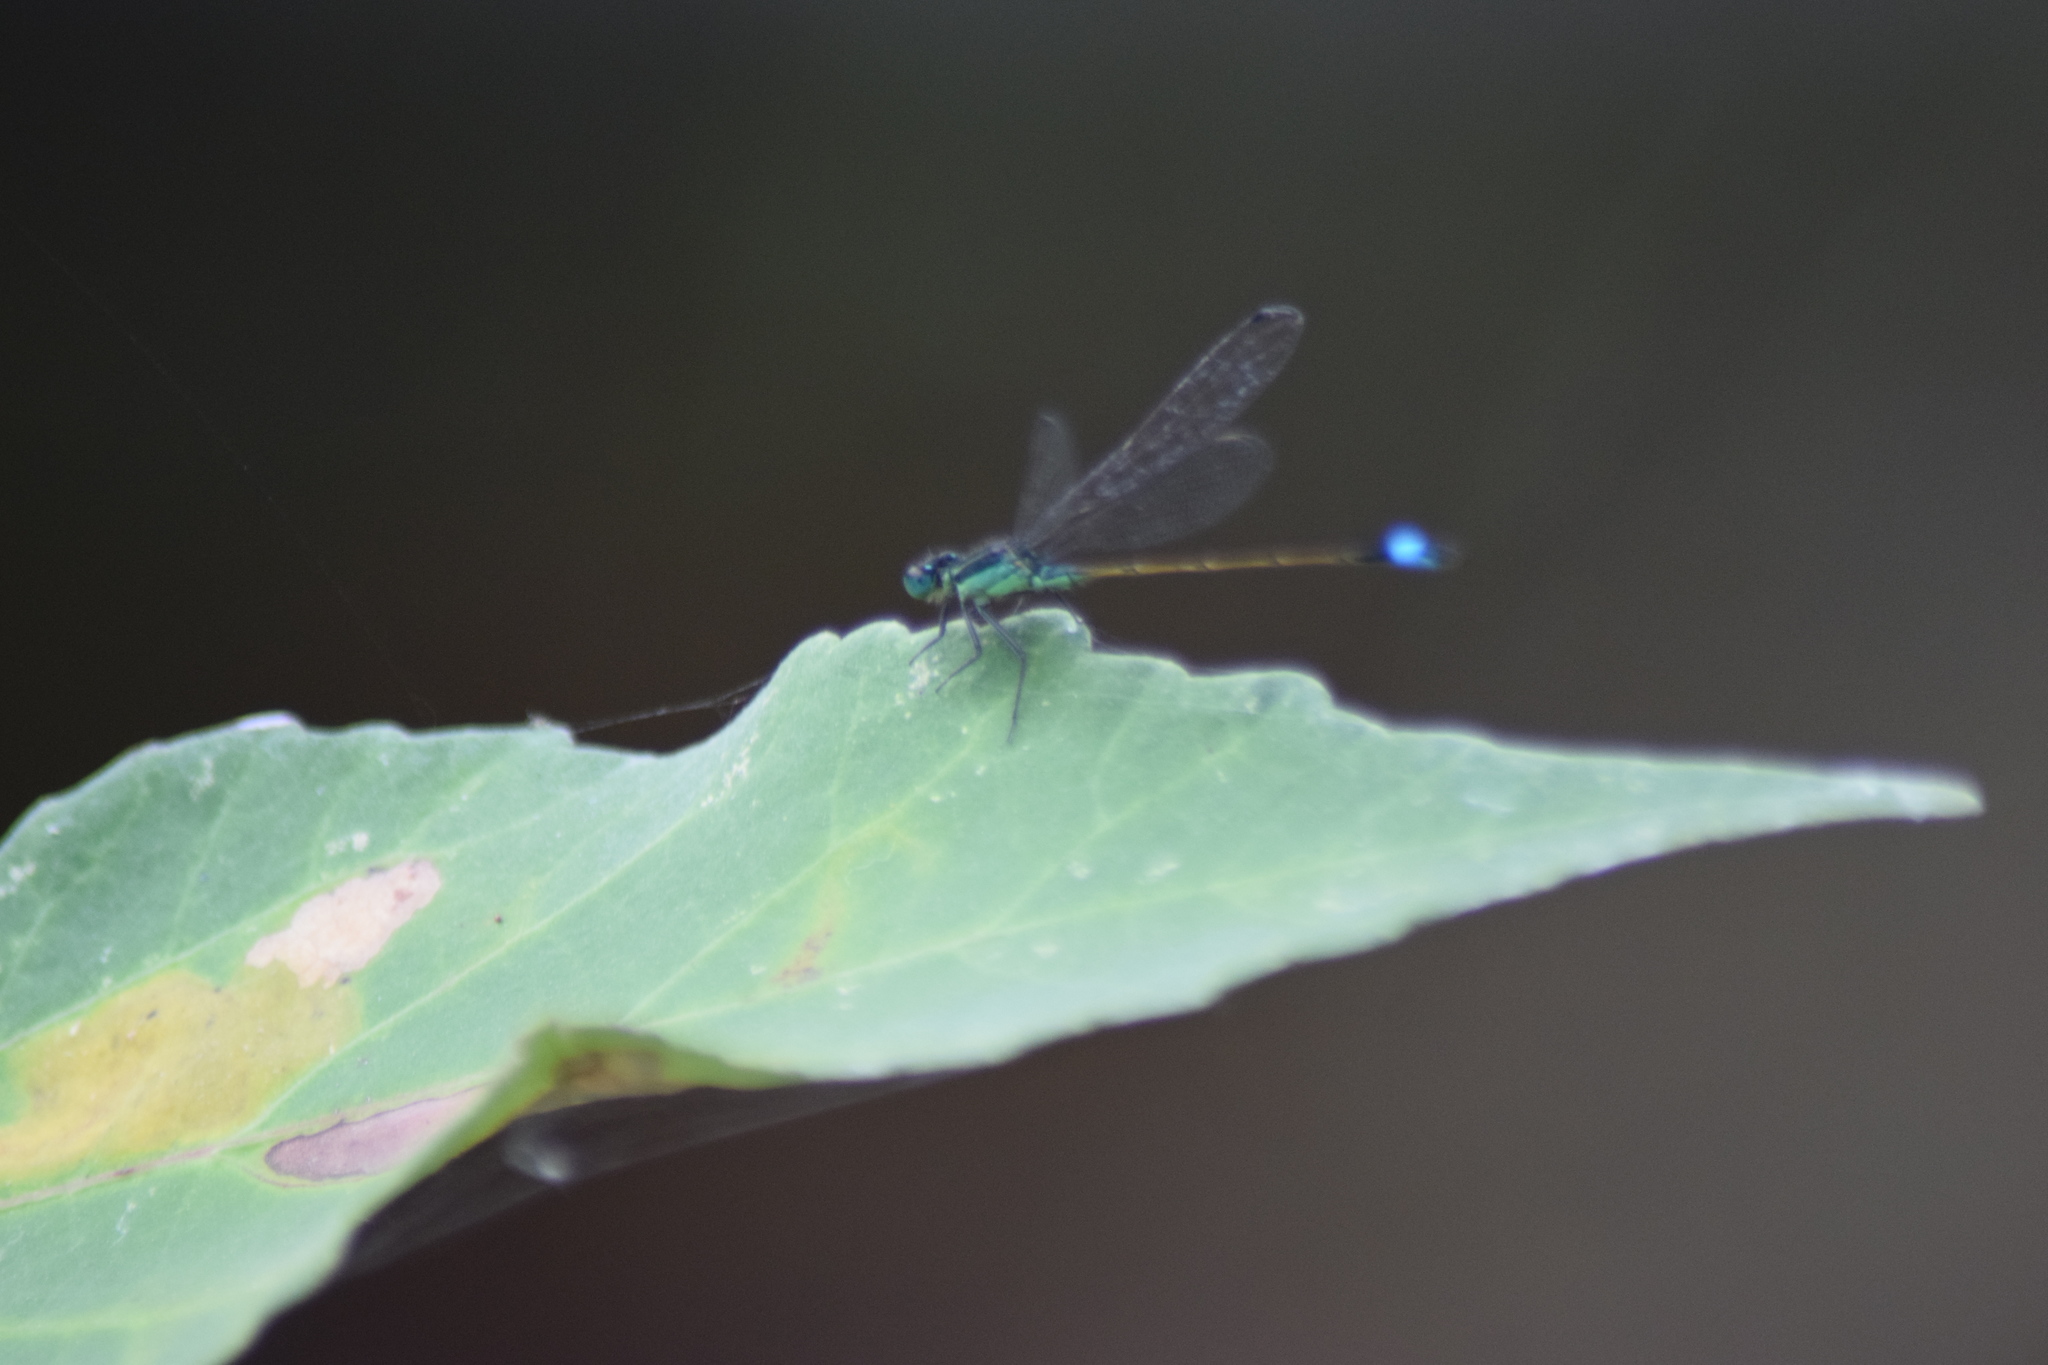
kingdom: Animalia
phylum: Arthropoda
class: Insecta
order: Odonata
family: Coenagrionidae
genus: Ischnura
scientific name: Ischnura ramburii
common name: Rambur's forktail
